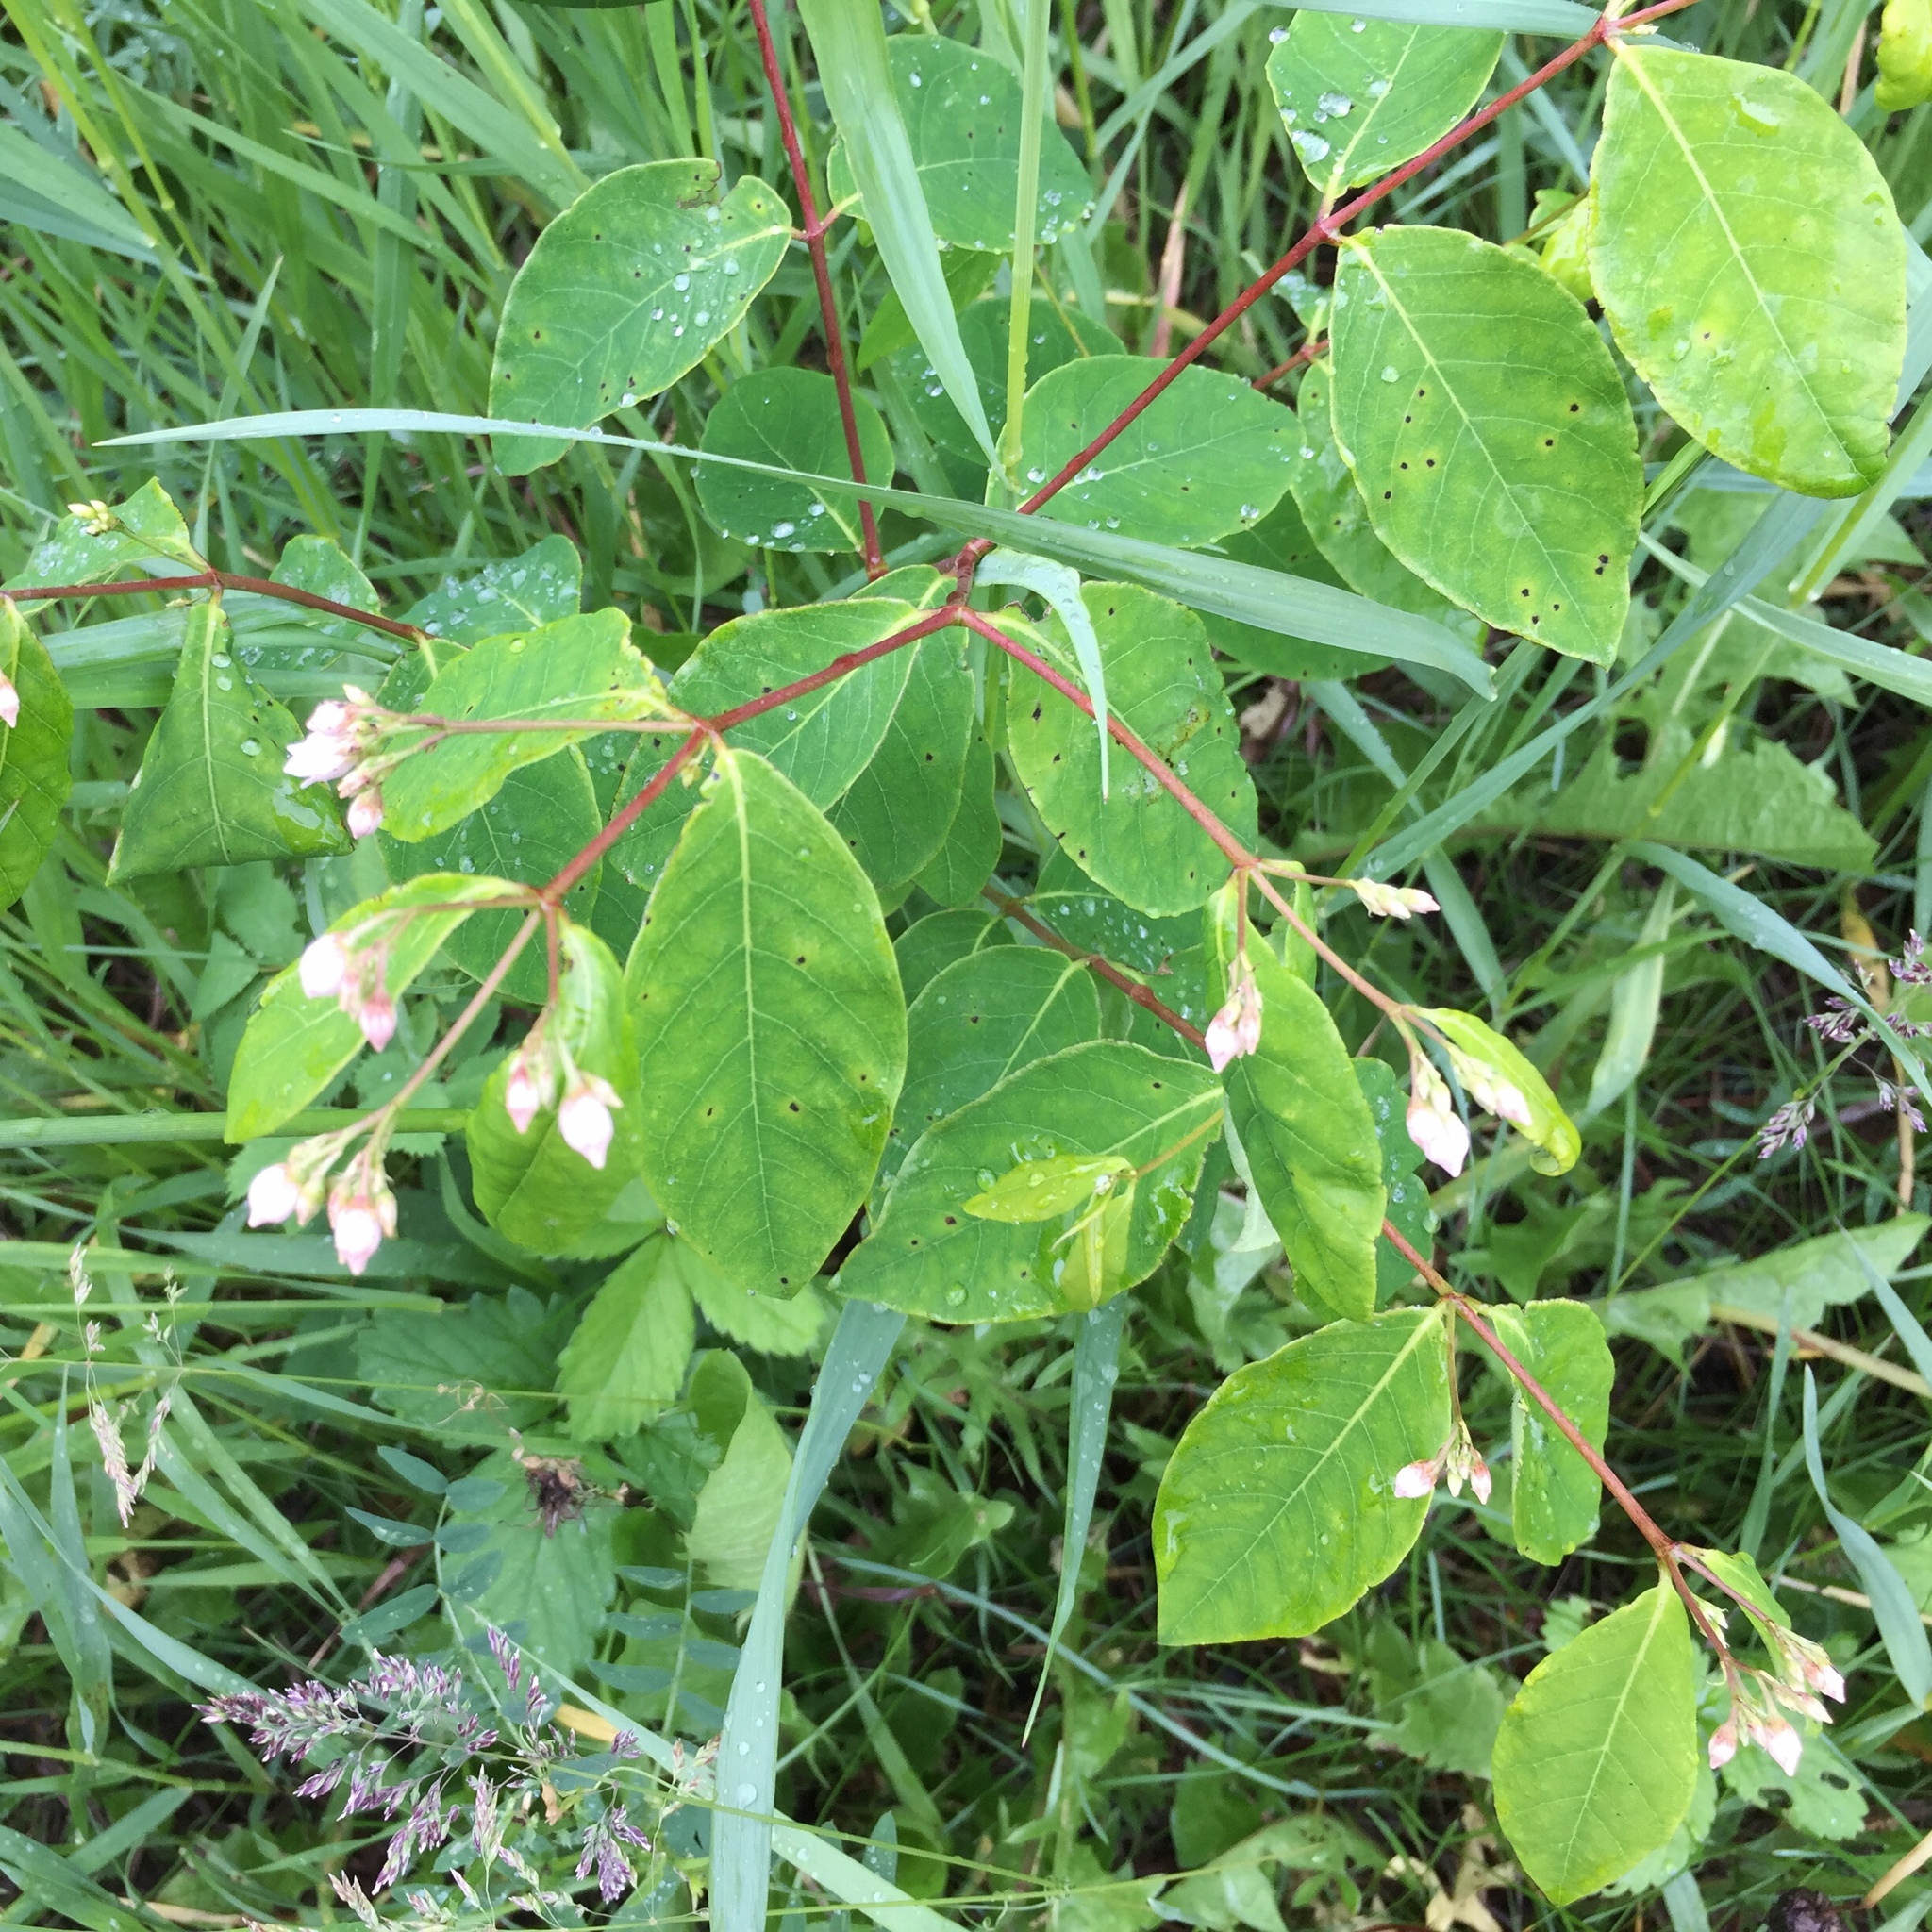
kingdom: Plantae
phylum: Tracheophyta
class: Magnoliopsida
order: Gentianales
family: Apocynaceae
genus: Apocynum
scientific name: Apocynum androsaemifolium
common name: Spreading dogbane
